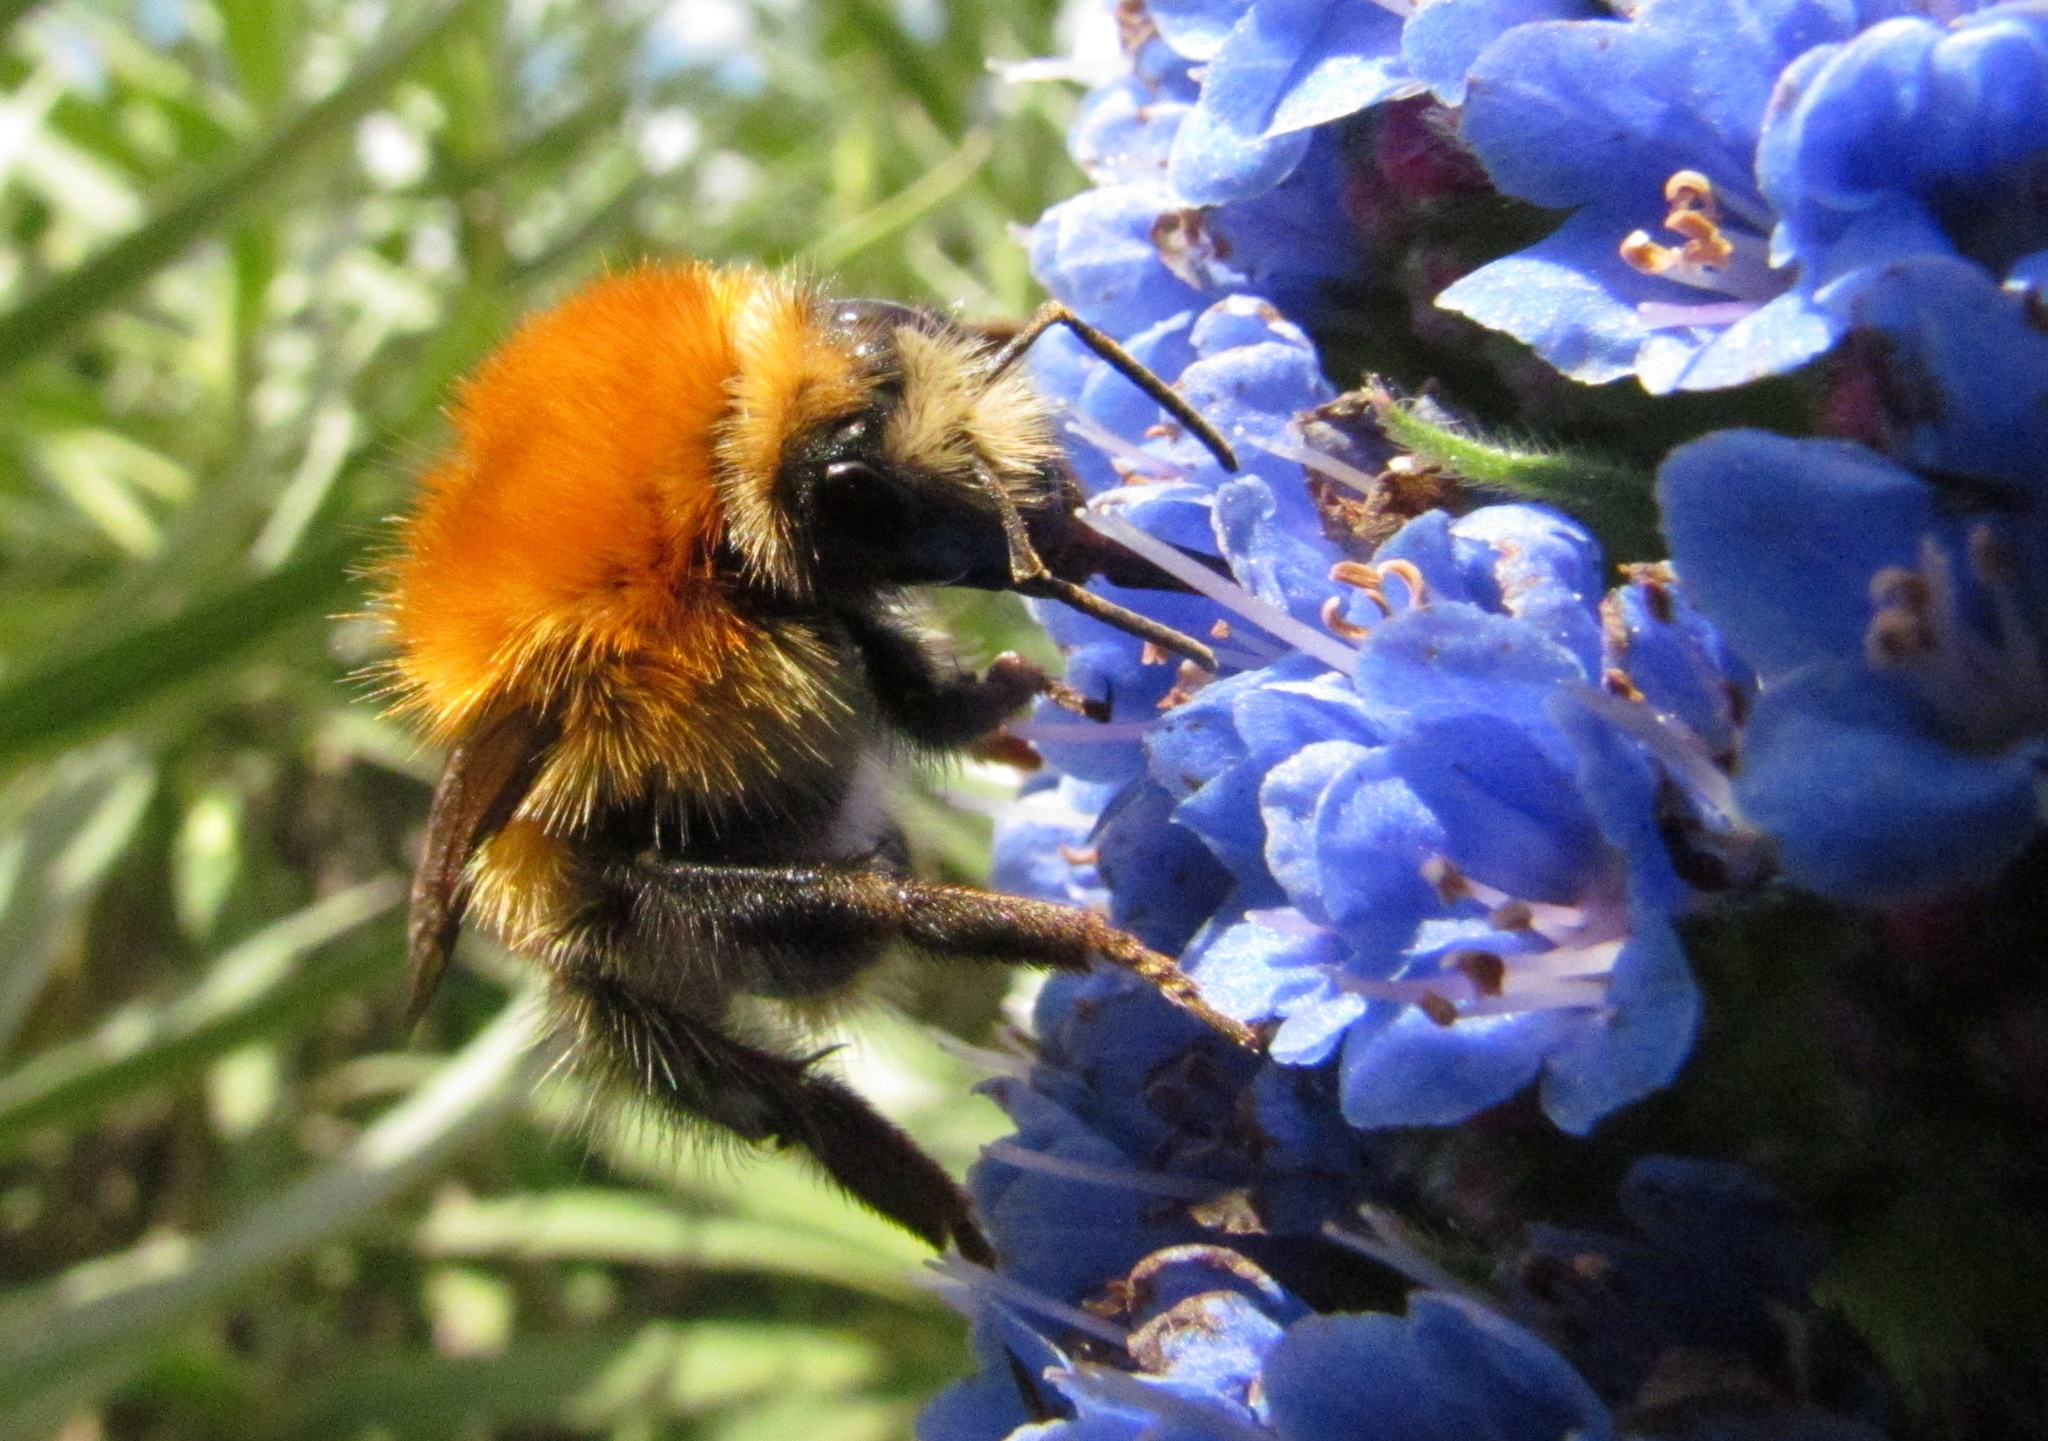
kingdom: Animalia
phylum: Arthropoda
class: Insecta
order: Hymenoptera
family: Apidae
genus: Bombus
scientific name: Bombus pascuorum
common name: Common carder bee
